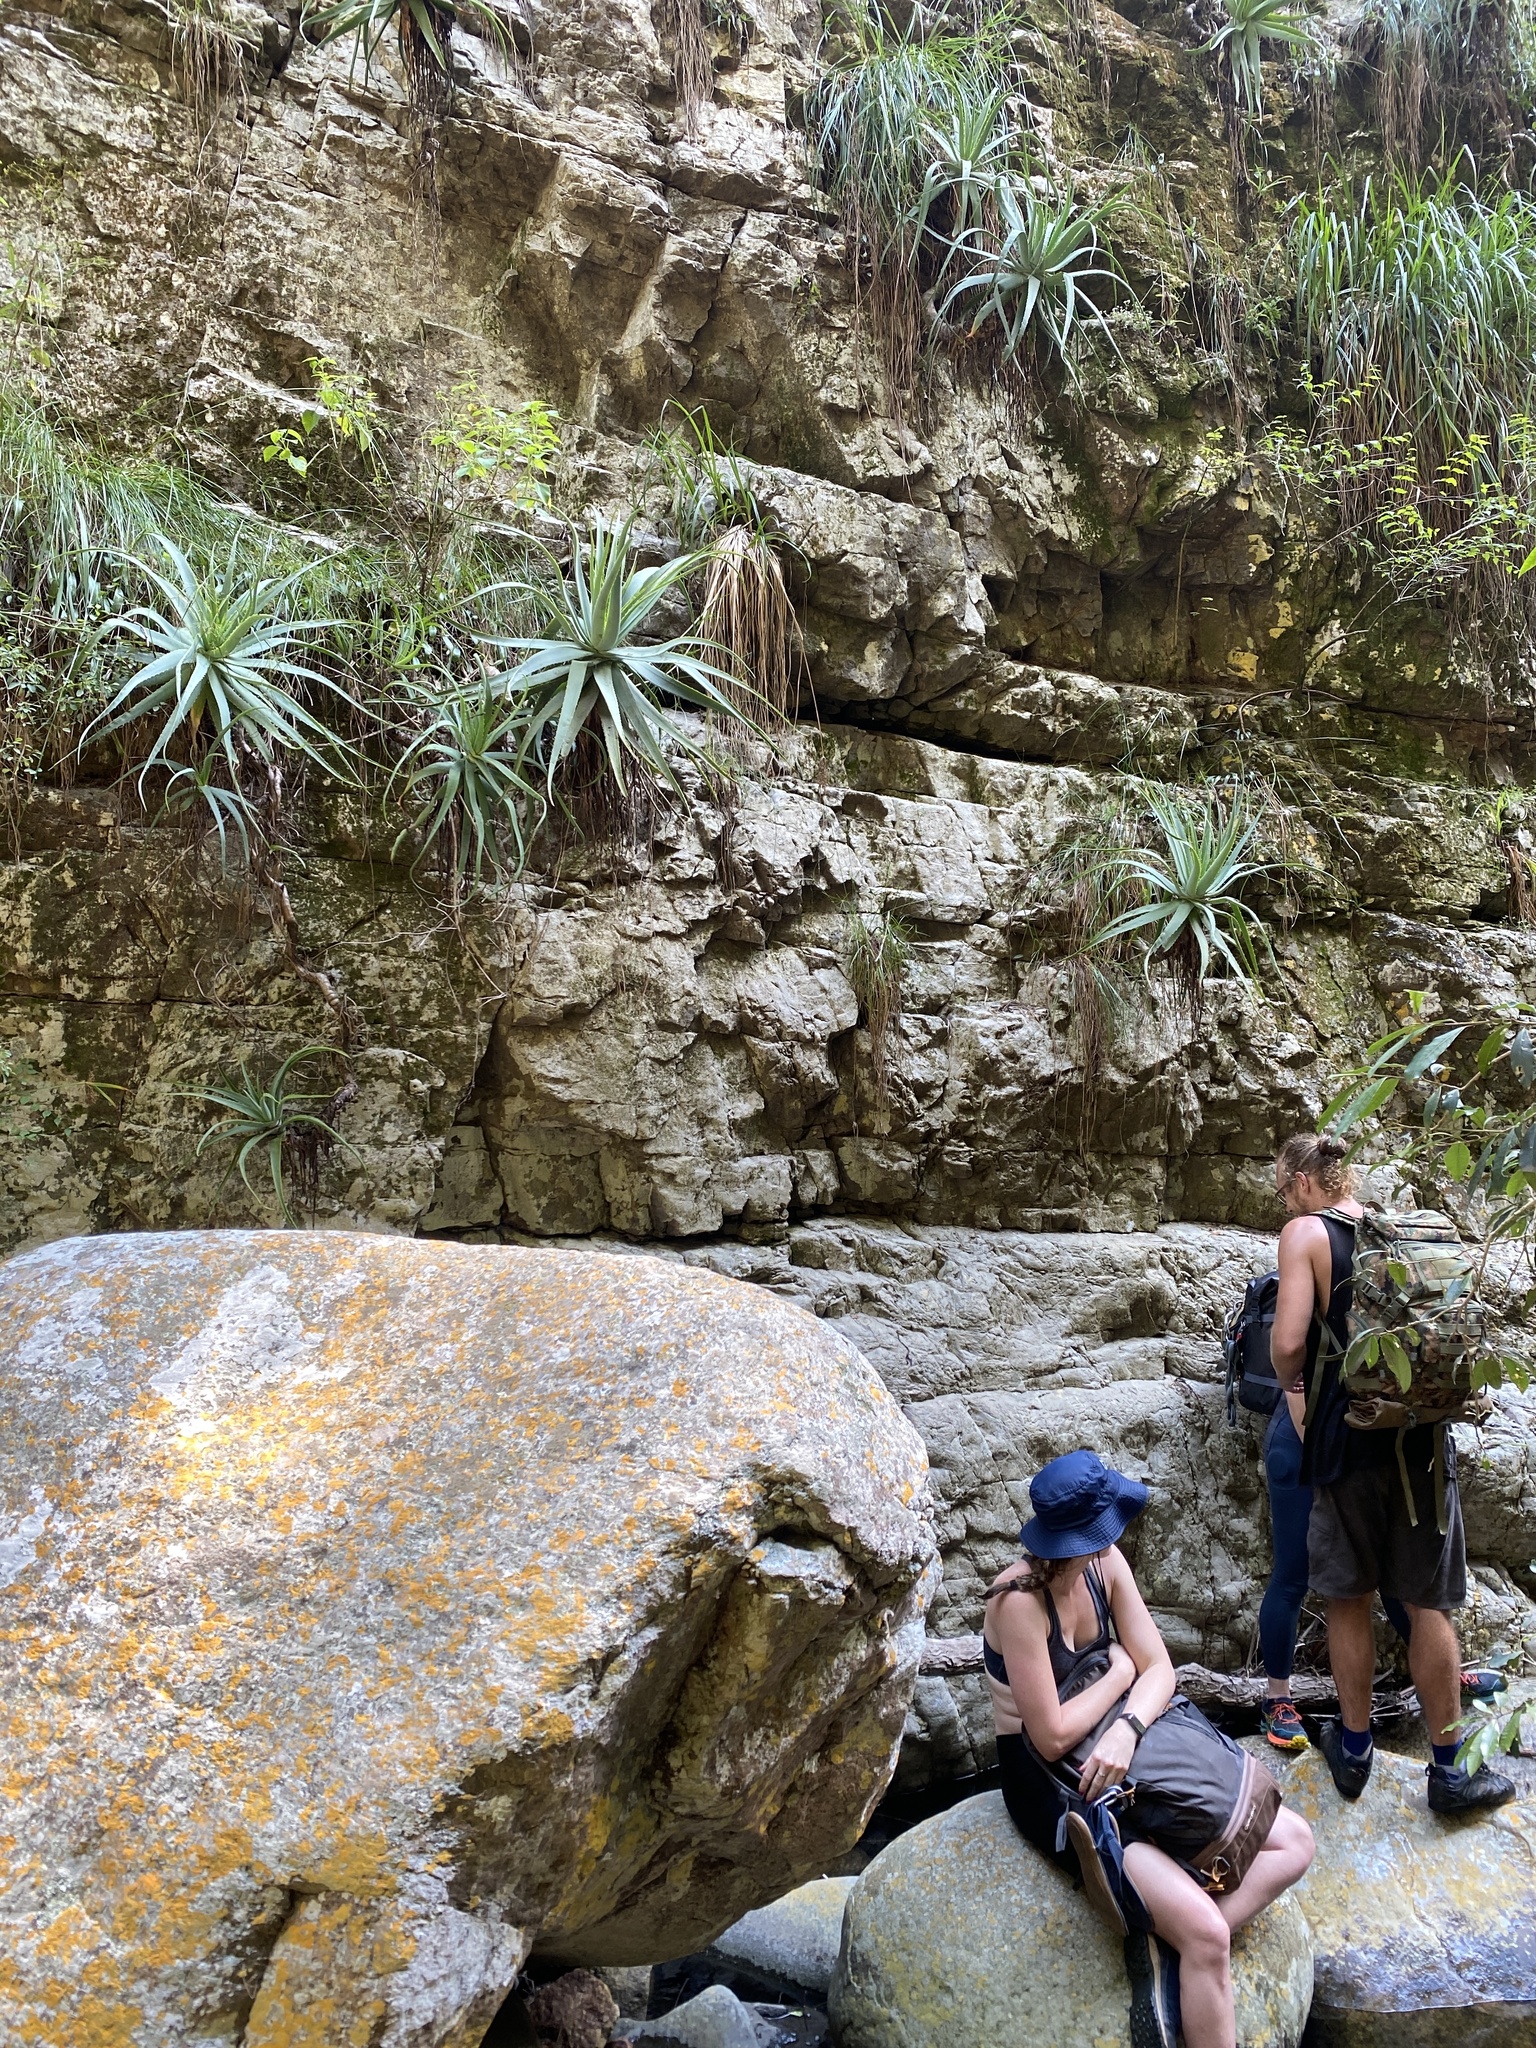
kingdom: Plantae
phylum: Tracheophyta
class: Liliopsida
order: Asparagales
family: Asphodelaceae
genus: Aloe
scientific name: Aloe mutabilis
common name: Blue krantz aloe
